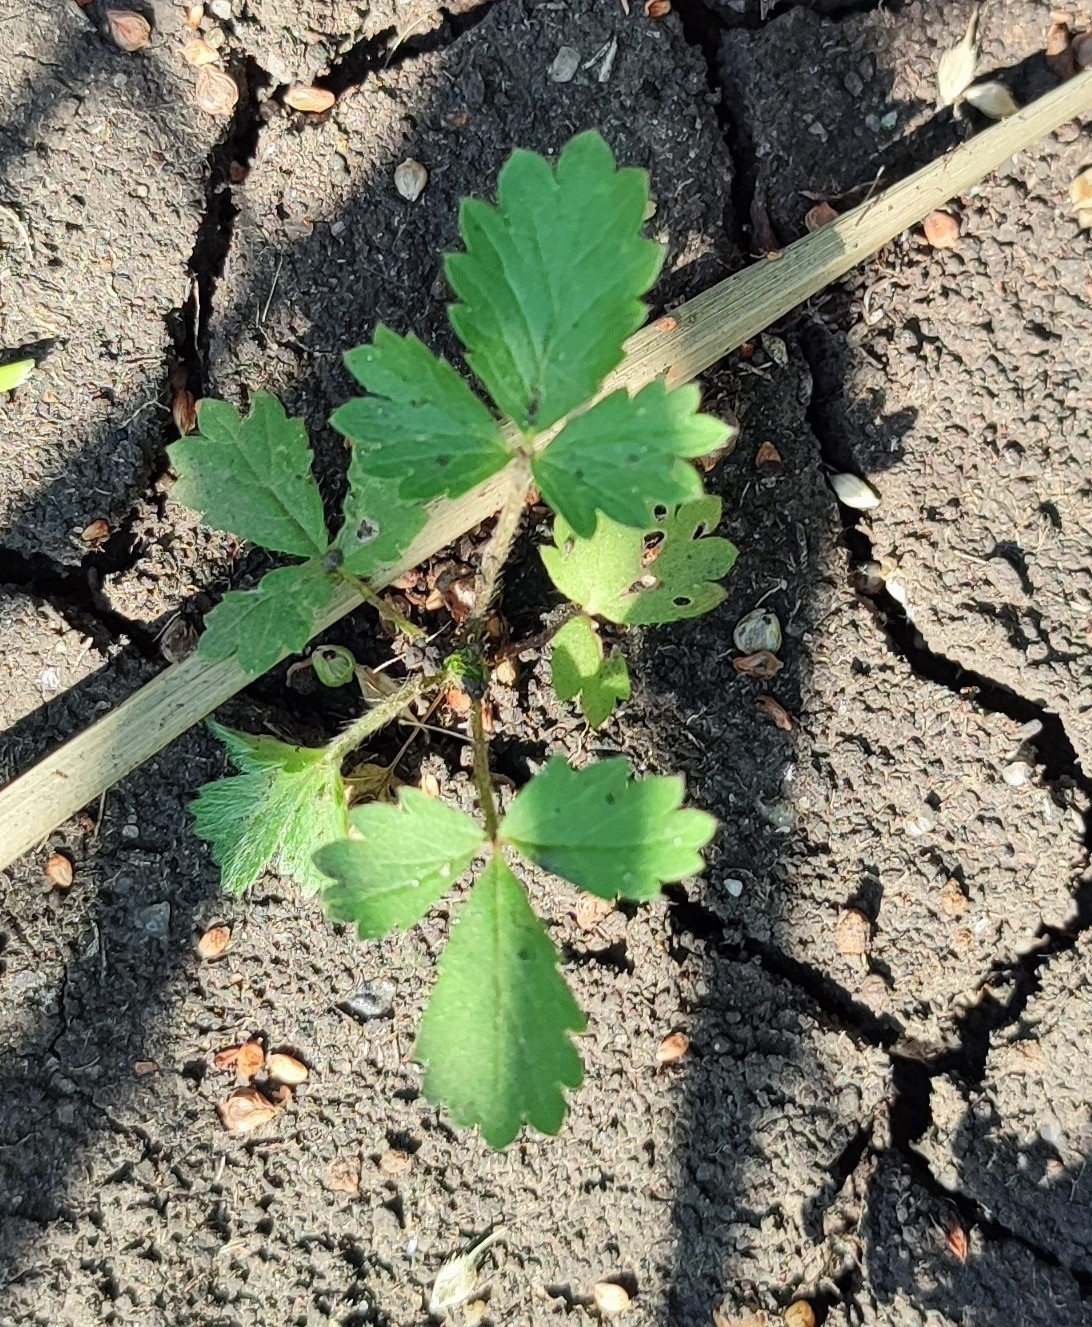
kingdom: Plantae
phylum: Tracheophyta
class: Magnoliopsida
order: Rosales
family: Rosaceae
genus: Potentilla
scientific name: Potentilla norvegica
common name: Ternate-leaved cinquefoil
